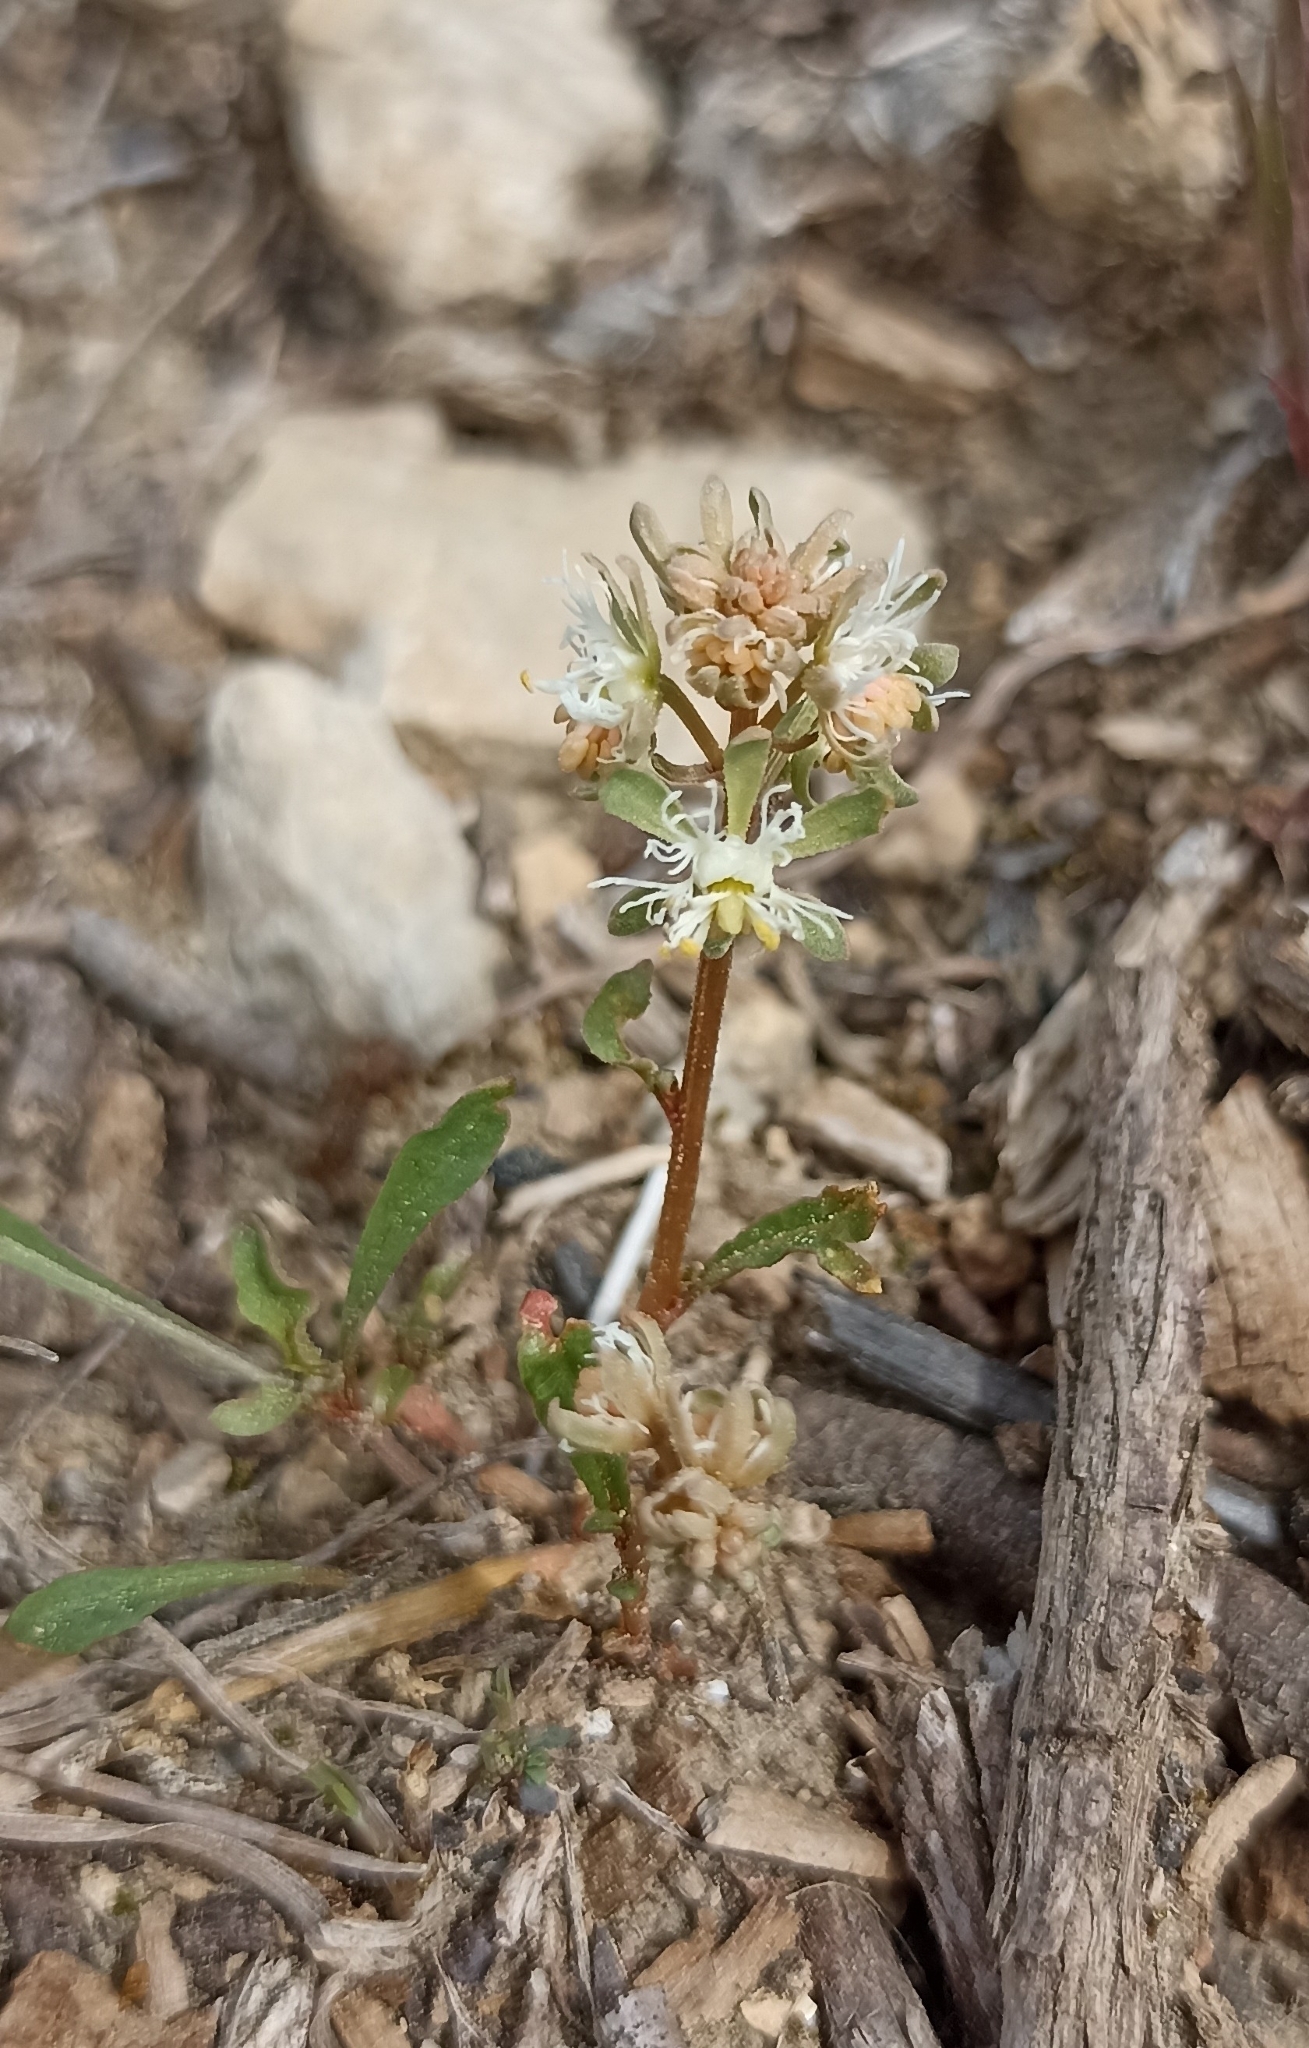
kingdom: Plantae
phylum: Tracheophyta
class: Magnoliopsida
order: Brassicales
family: Resedaceae
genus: Reseda
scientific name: Reseda phyteuma
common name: Corn mignonette
